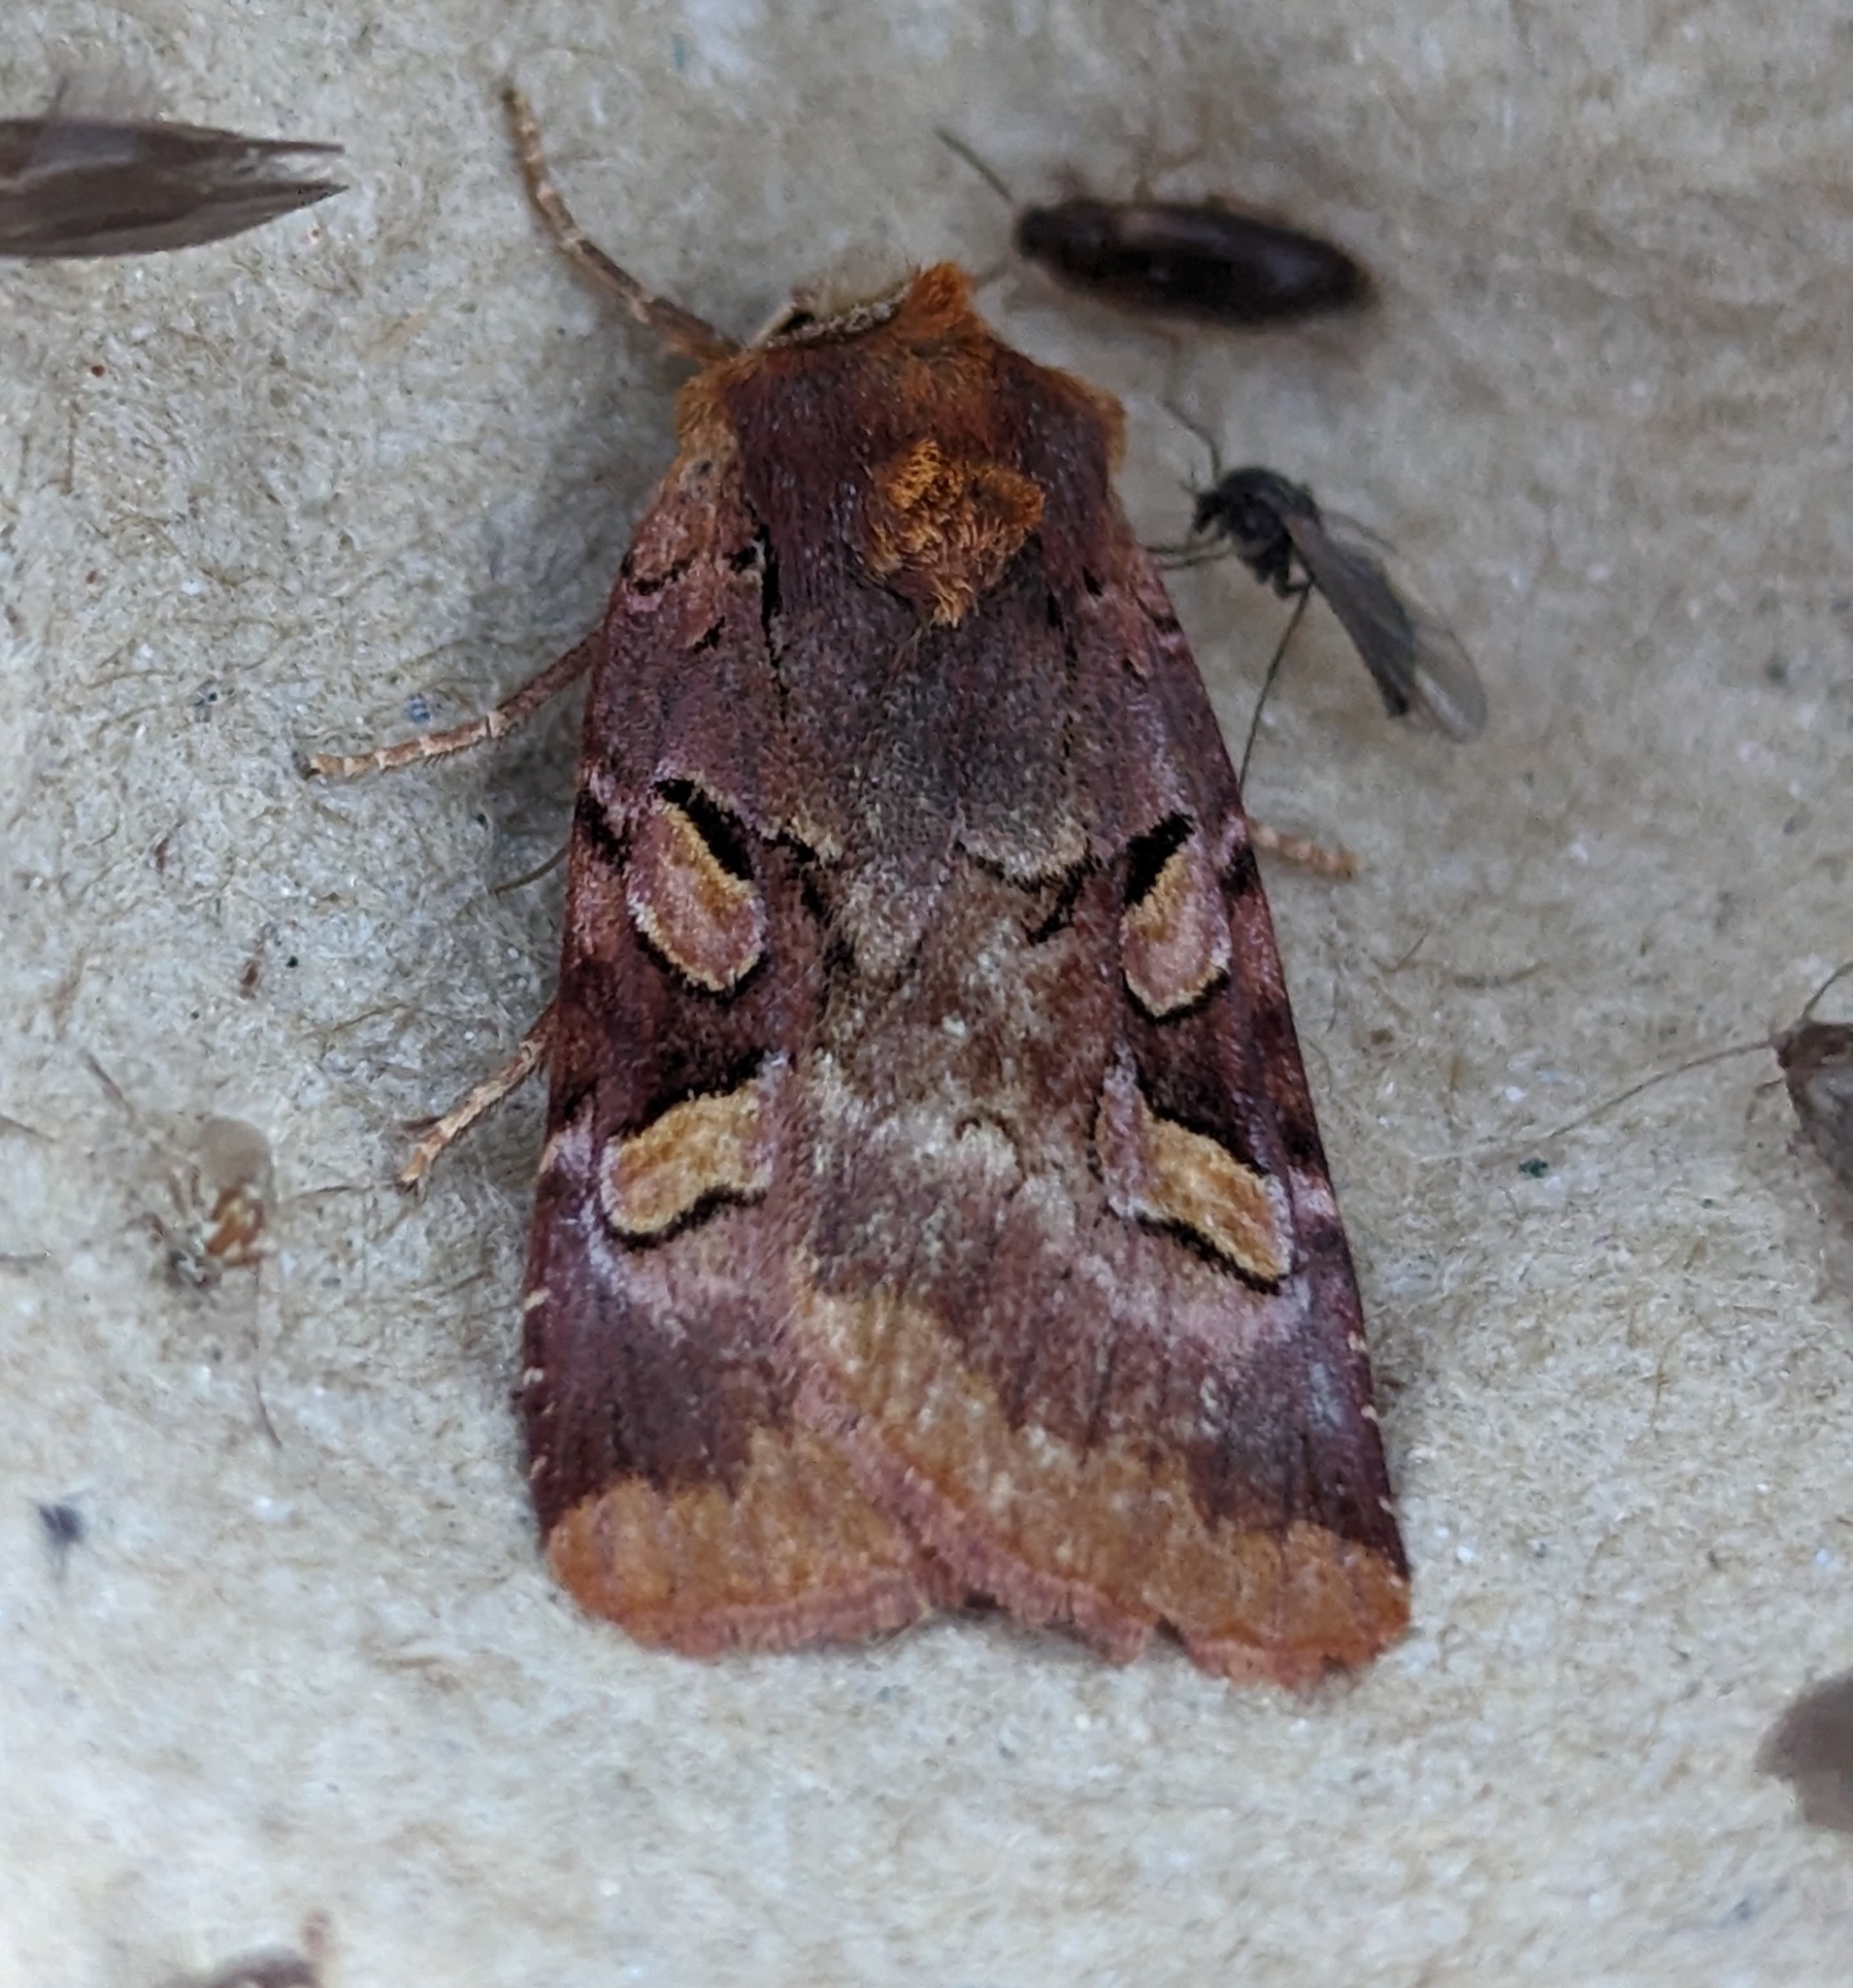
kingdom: Animalia
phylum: Arthropoda
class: Insecta
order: Lepidoptera
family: Noctuidae
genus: Xestia
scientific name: Xestia oblata
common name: Rosy dart
